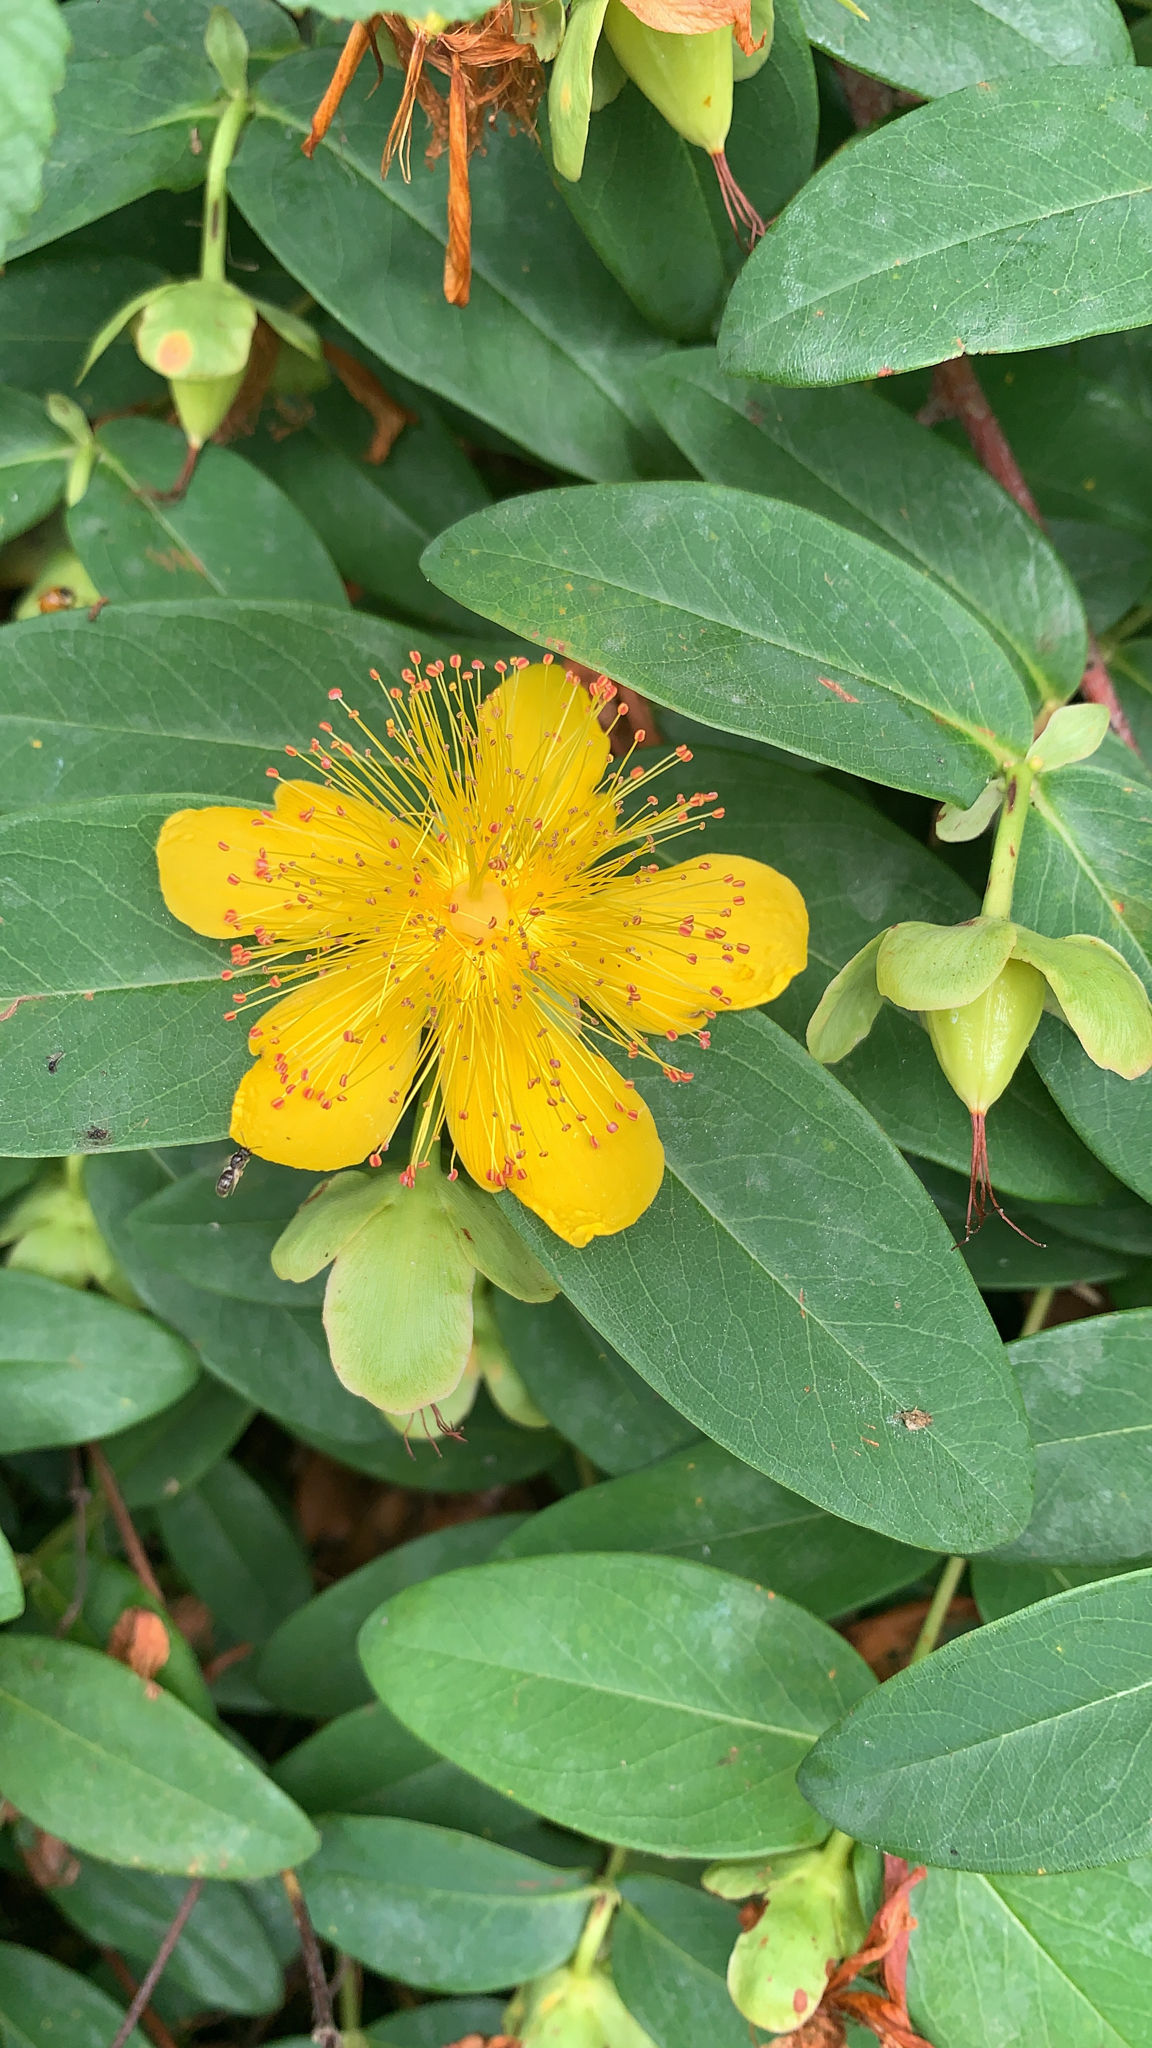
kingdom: Plantae
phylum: Tracheophyta
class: Magnoliopsida
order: Malpighiales
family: Hypericaceae
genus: Hypericum
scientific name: Hypericum calycinum
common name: Rose-of-sharon
